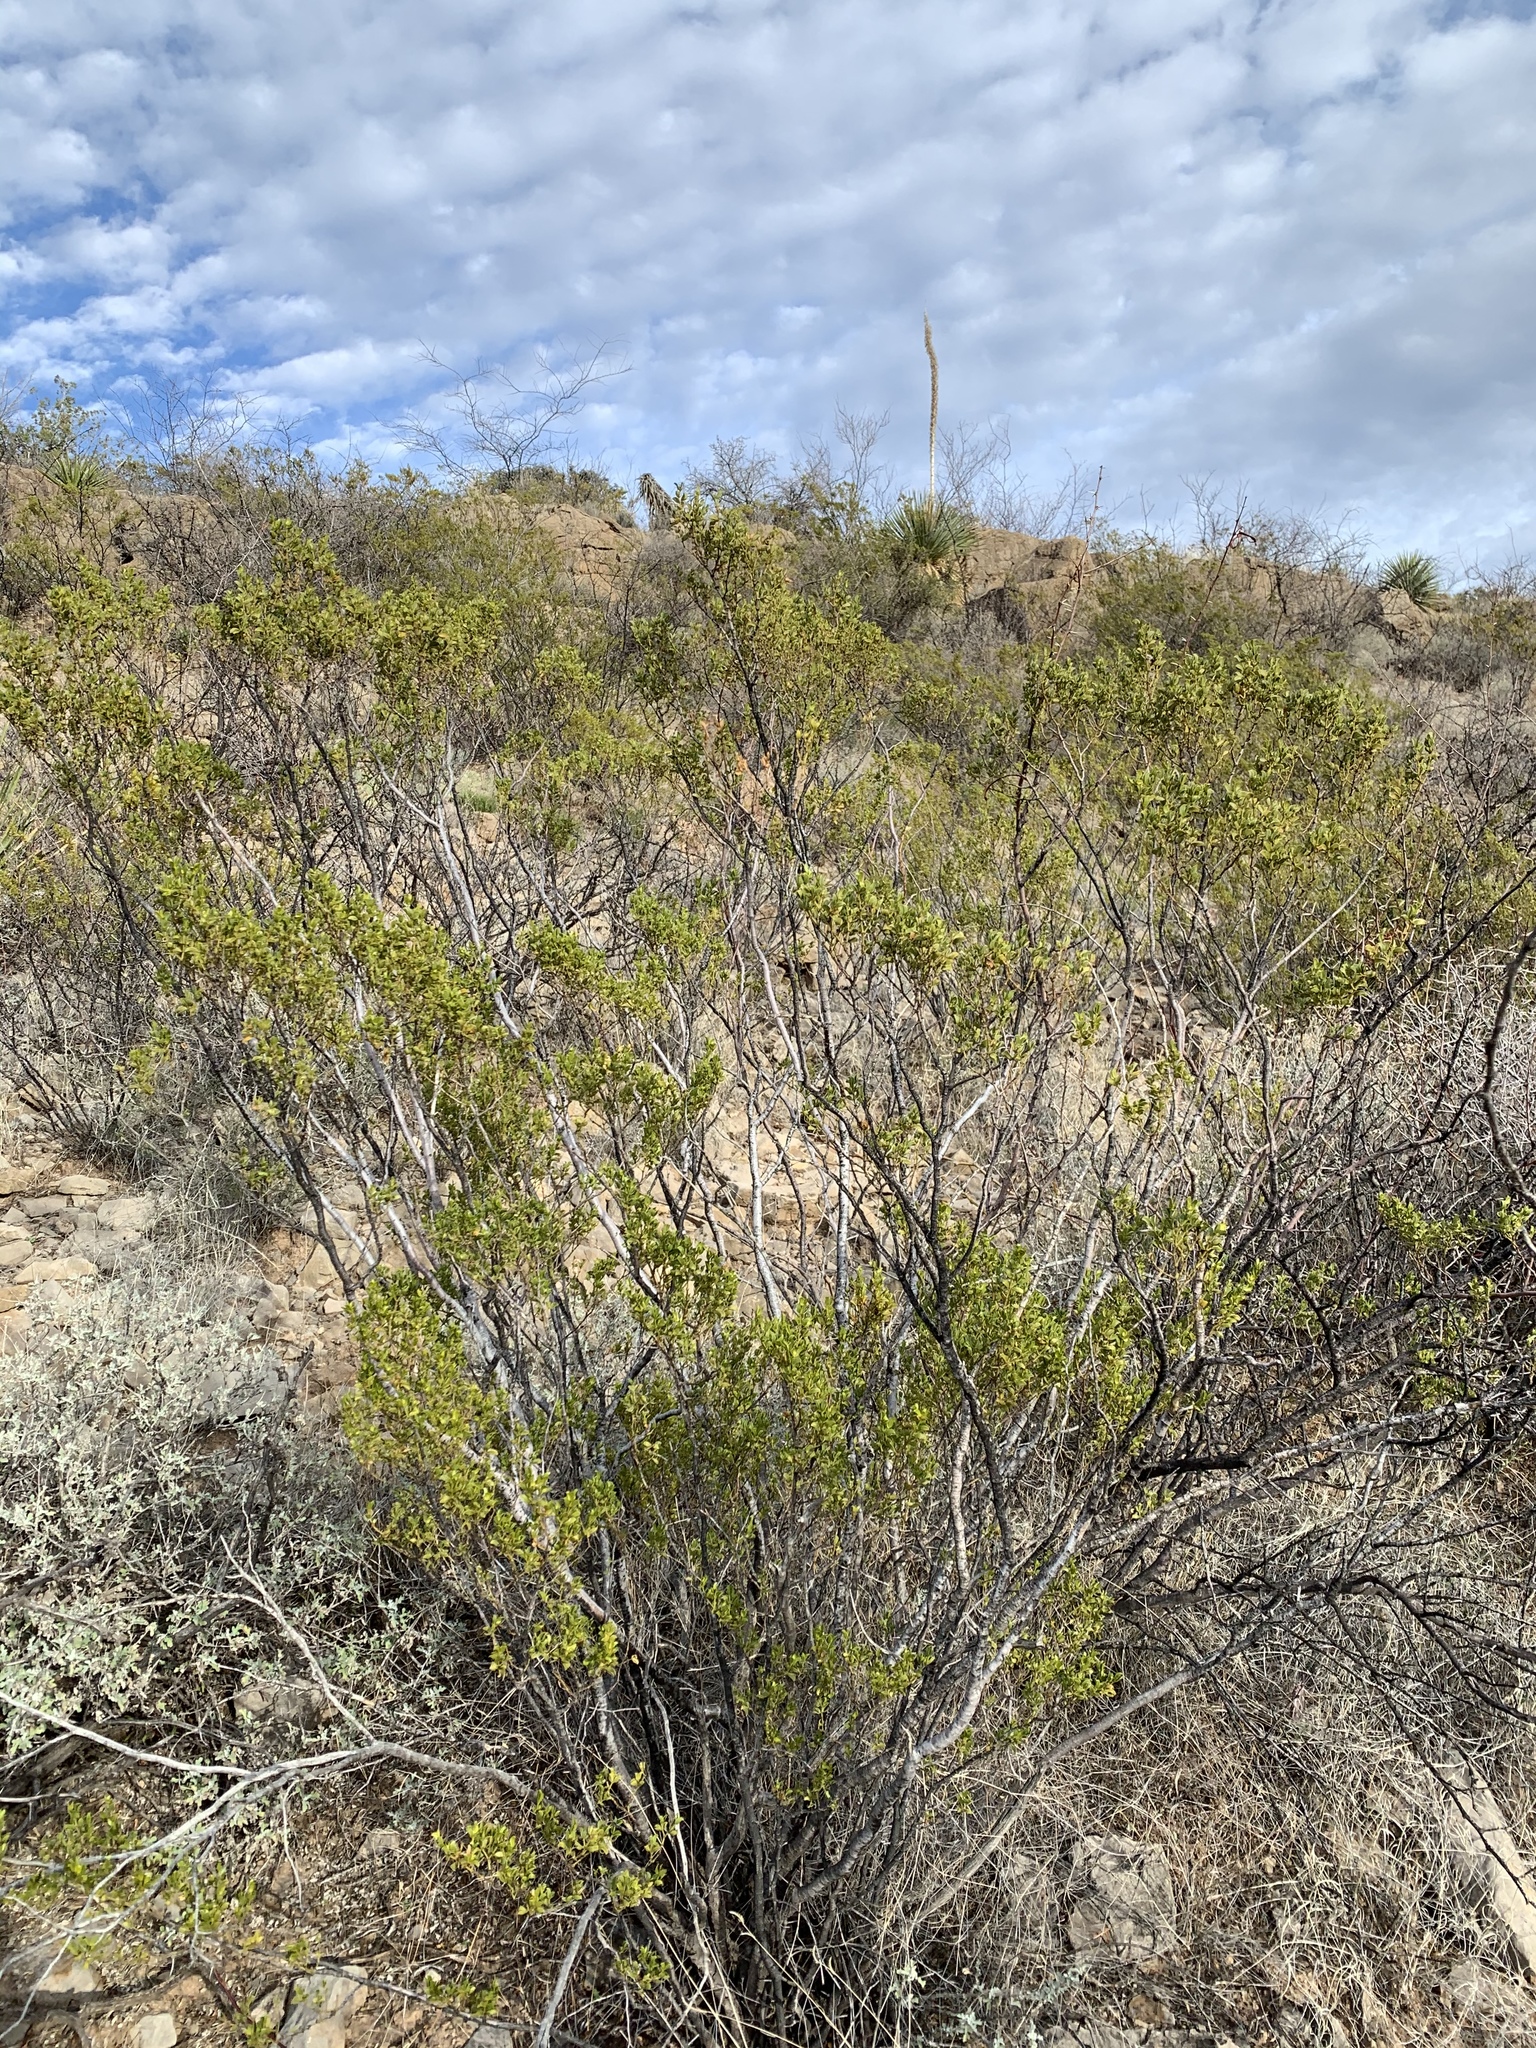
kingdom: Plantae
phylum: Tracheophyta
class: Magnoliopsida
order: Zygophyllales
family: Zygophyllaceae
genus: Larrea
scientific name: Larrea tridentata
